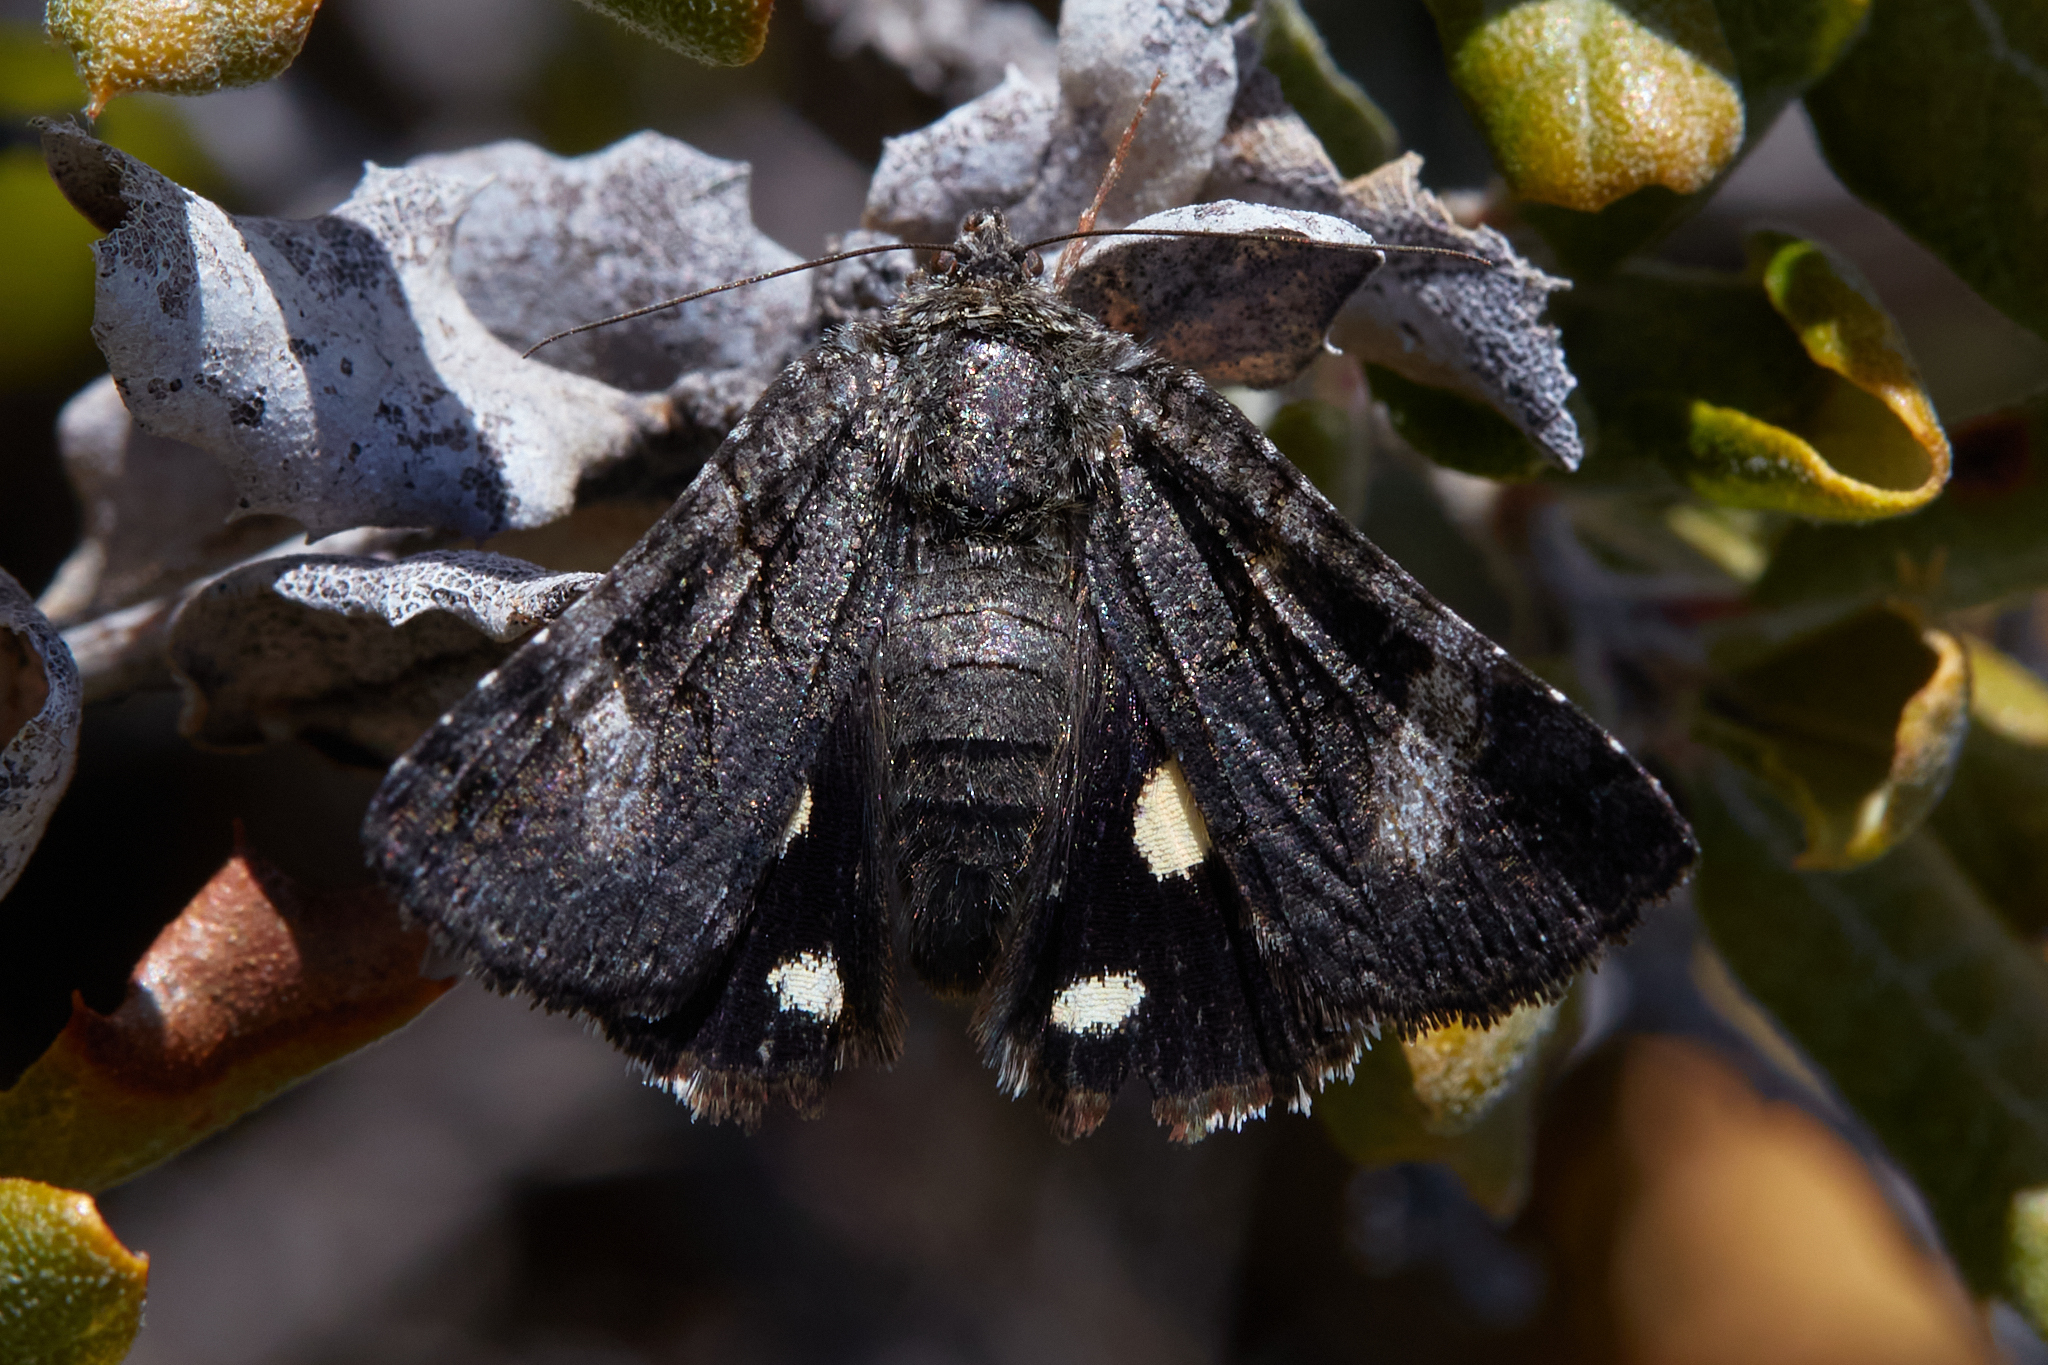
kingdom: Animalia
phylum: Arthropoda
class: Insecta
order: Lepidoptera
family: Erebidae
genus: Litocala
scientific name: Litocala sexsignata
